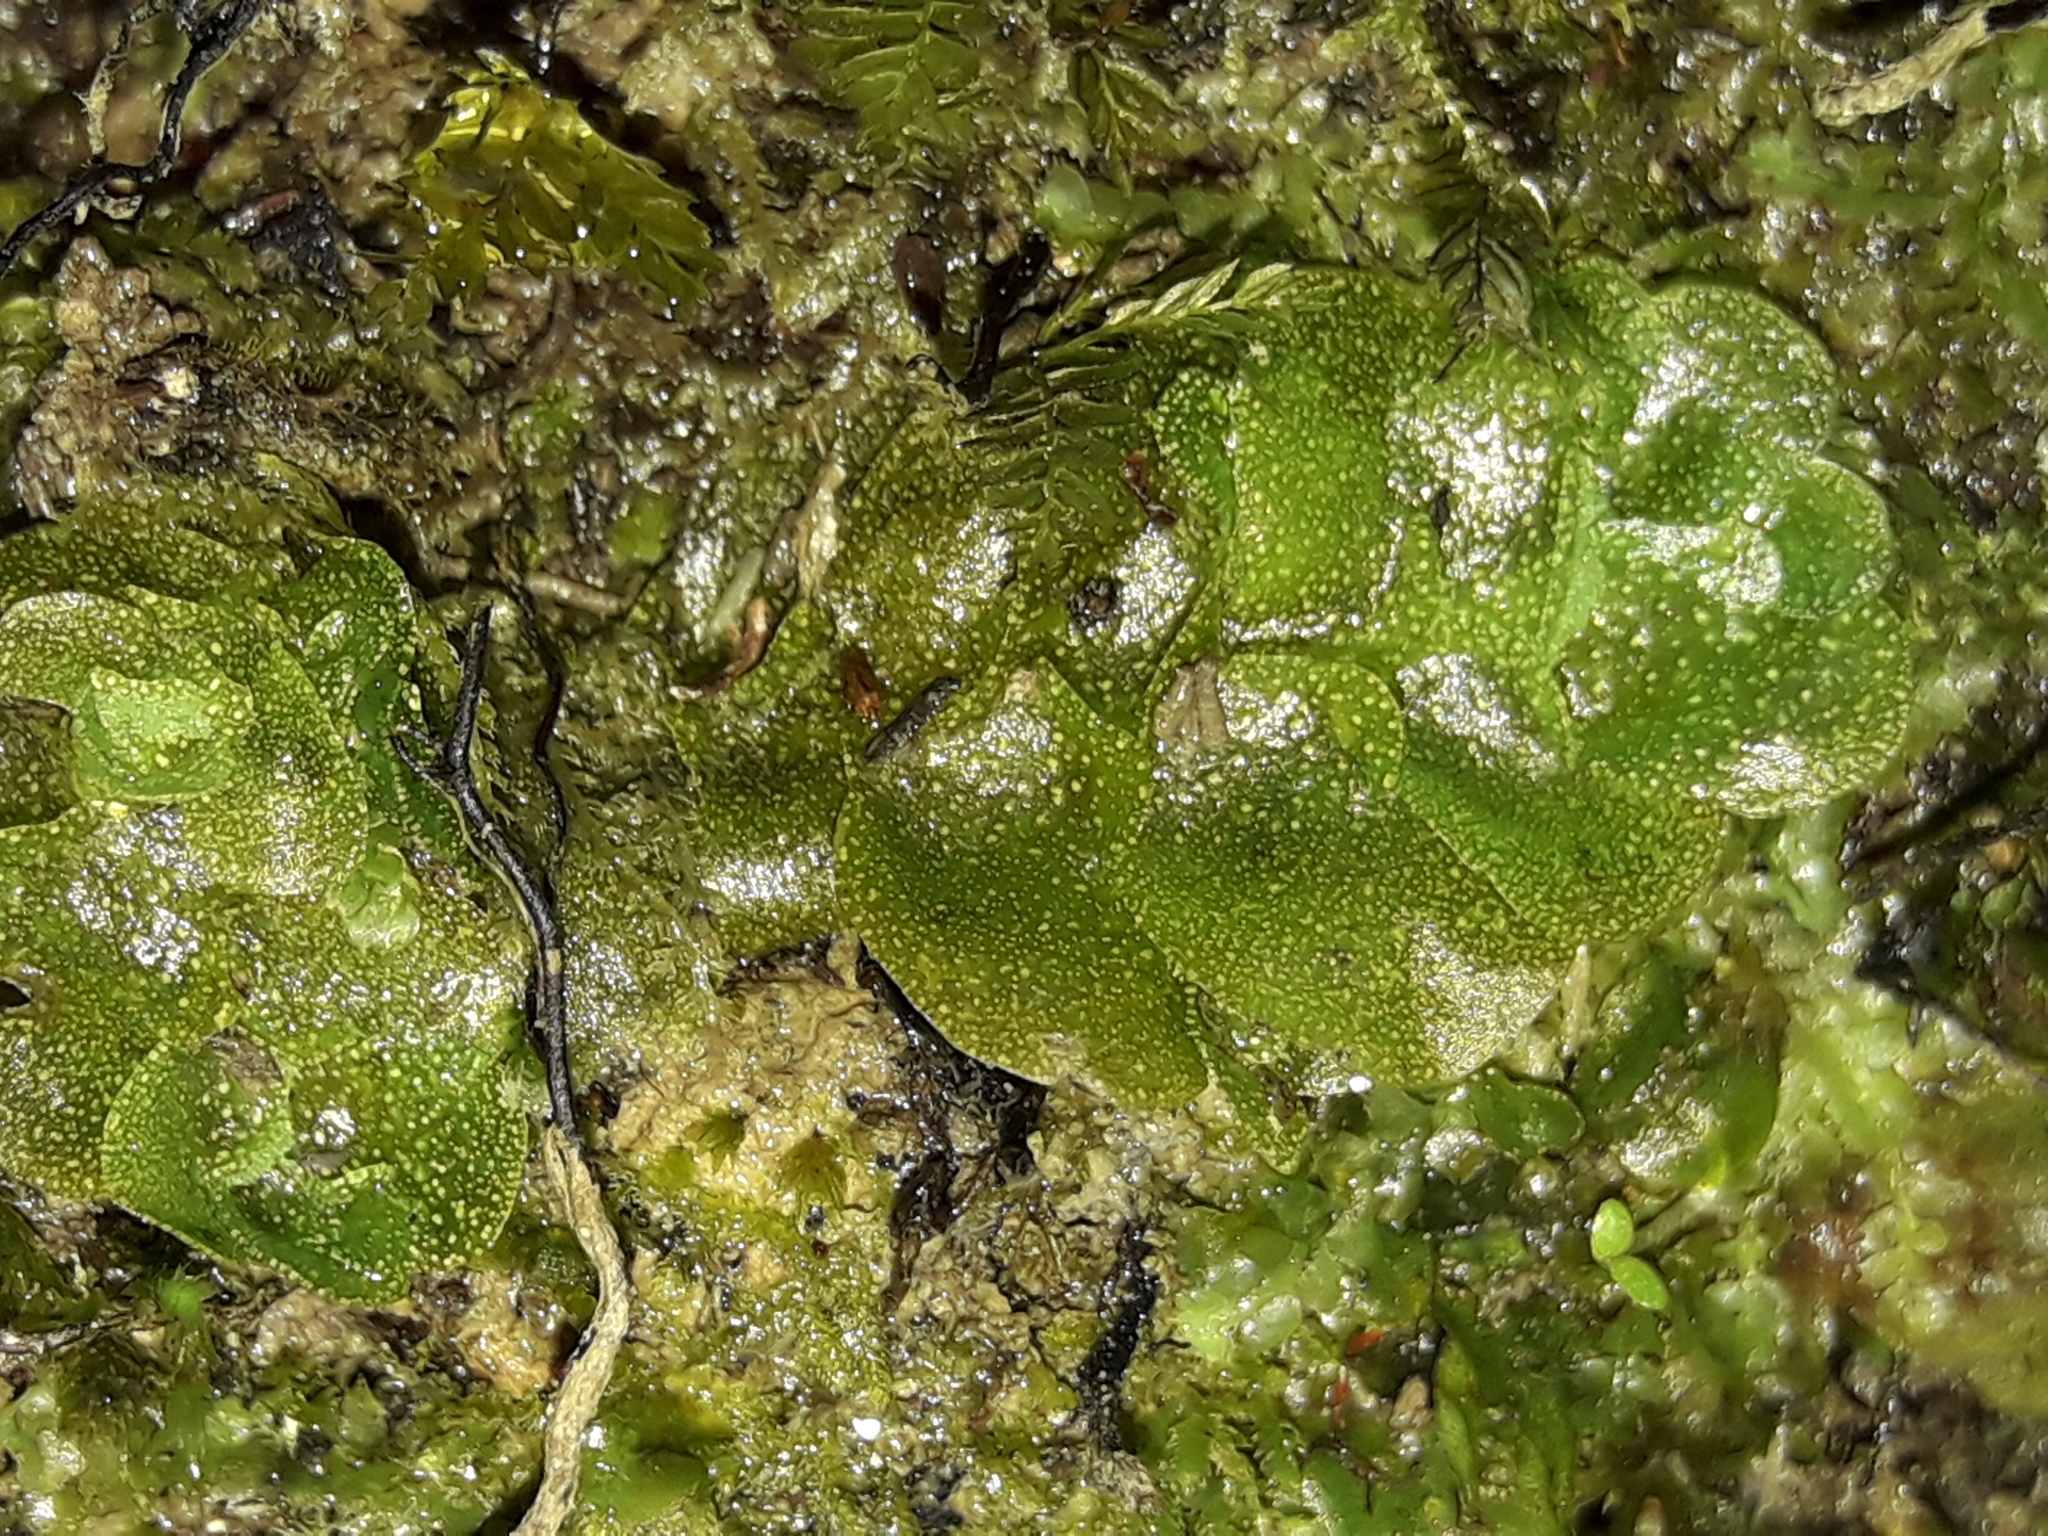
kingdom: Plantae
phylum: Marchantiophyta
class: Haplomitriopsida
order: Treubiales
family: Treubiaceae
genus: Treubia
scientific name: Treubia lacunosa
